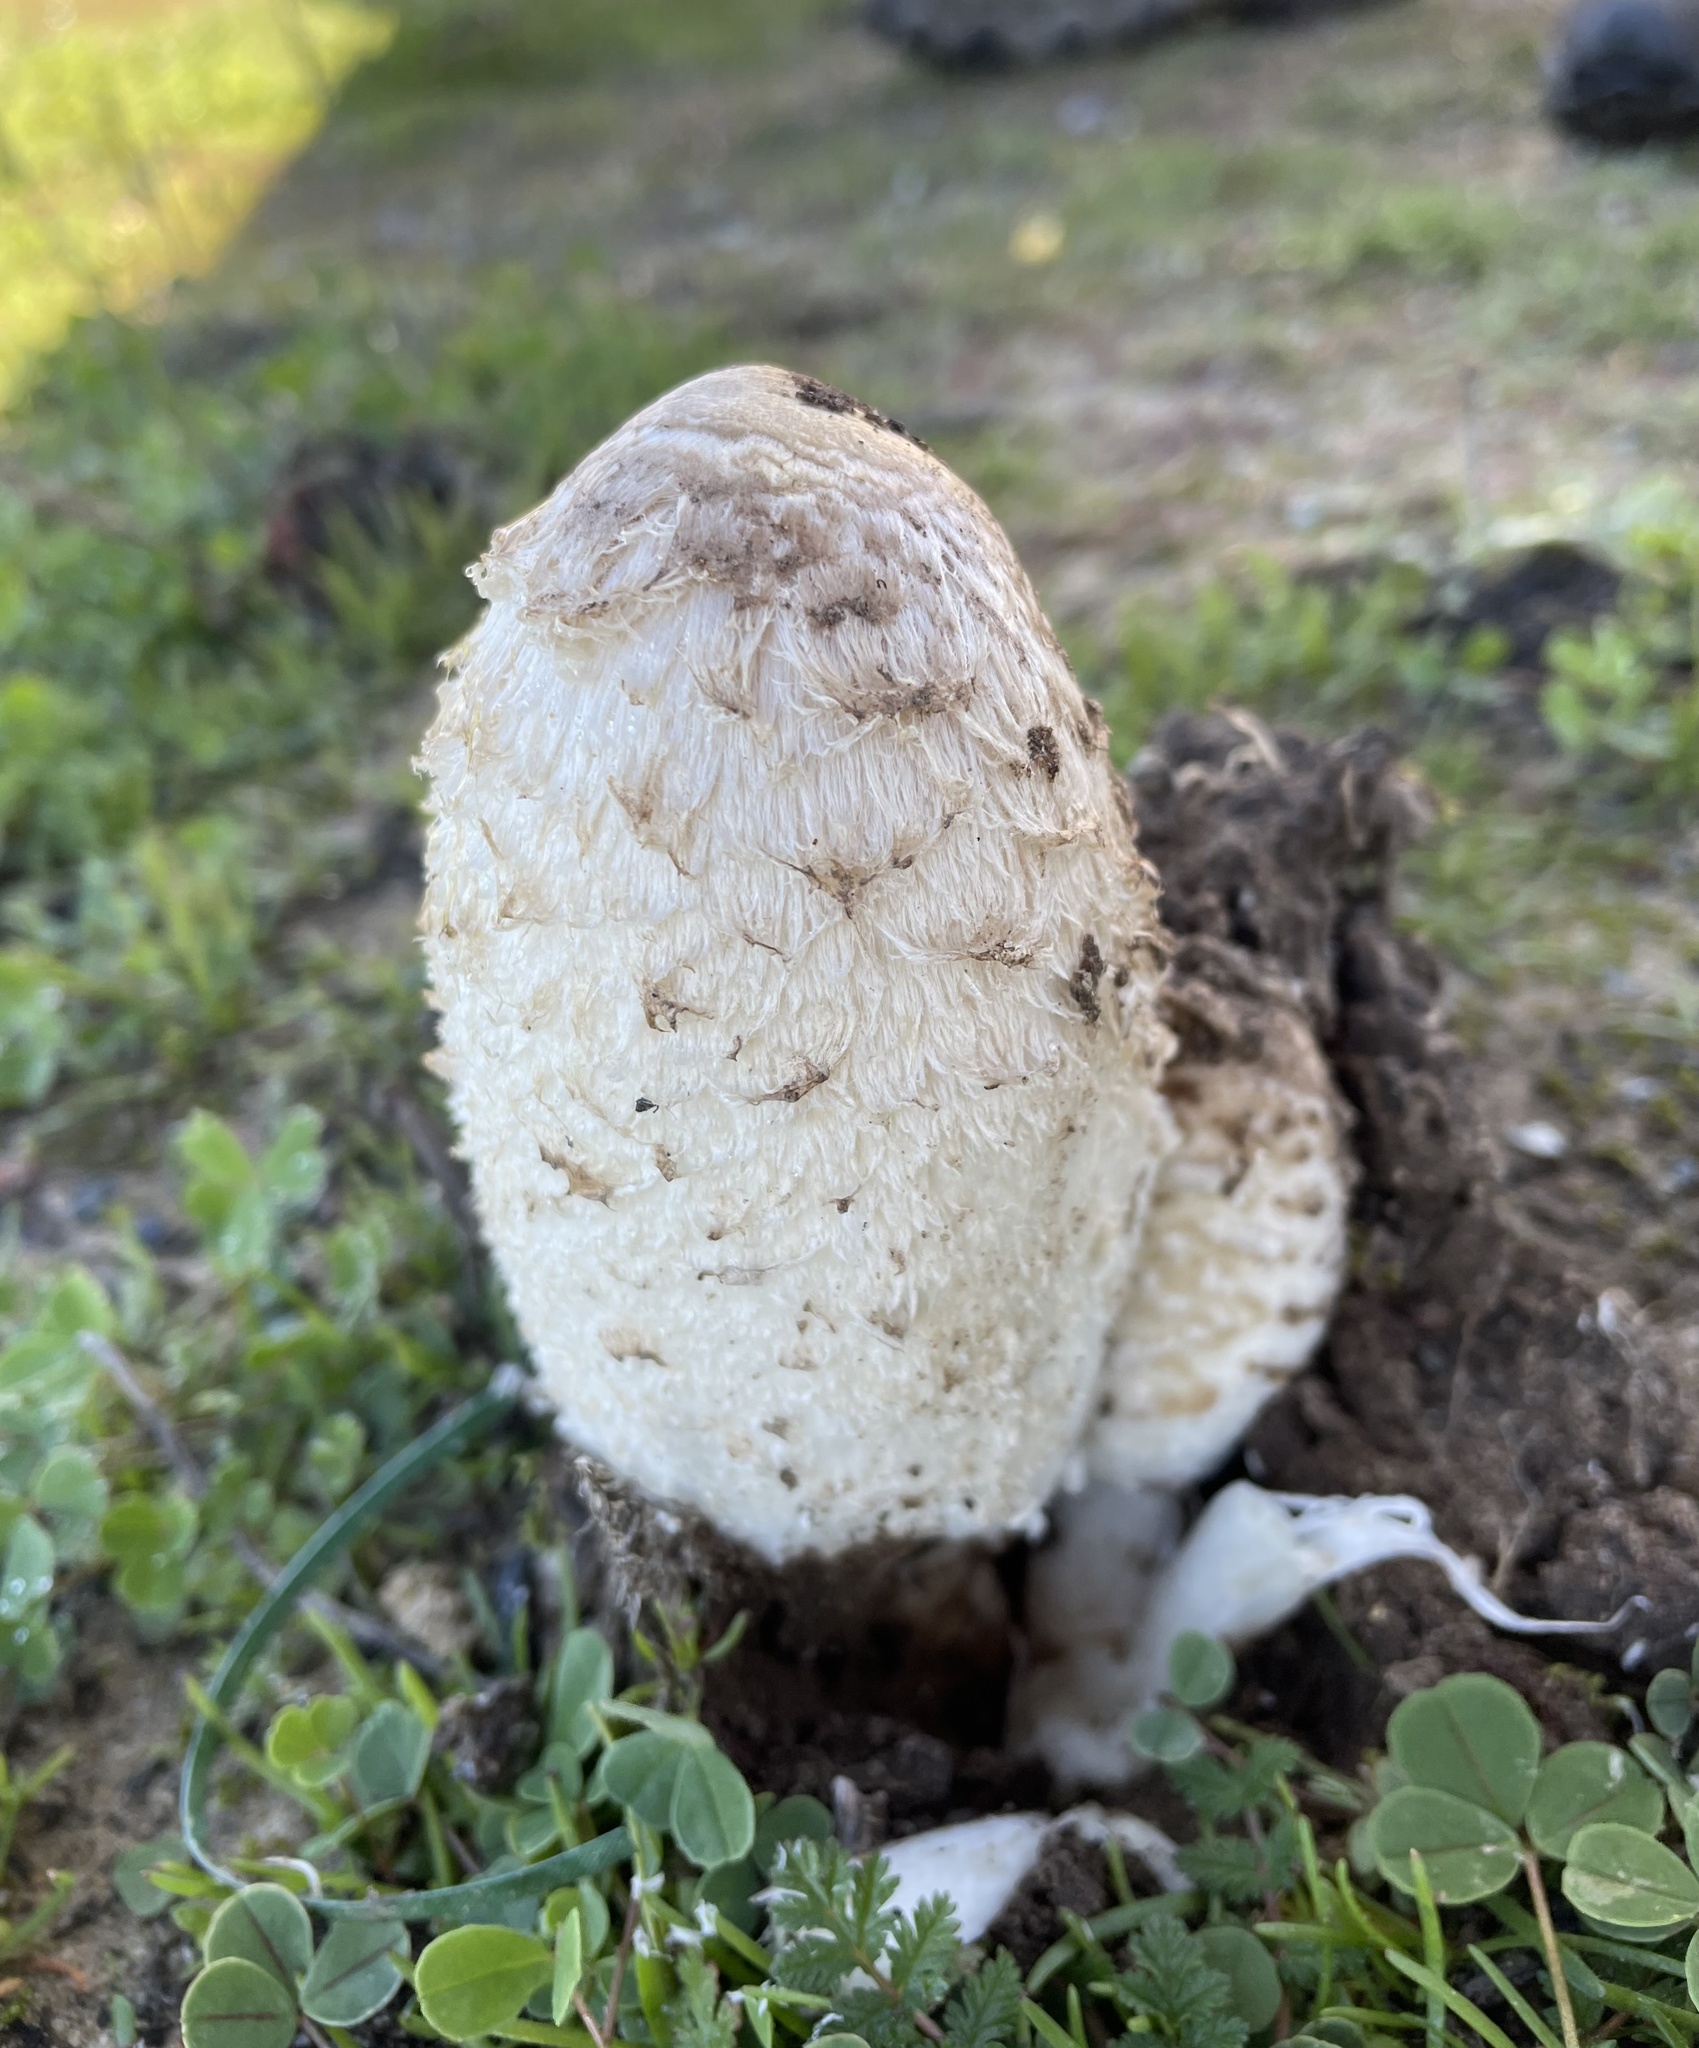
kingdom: Fungi
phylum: Basidiomycota
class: Agaricomycetes
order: Agaricales
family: Agaricaceae
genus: Coprinus
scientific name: Coprinus comatus
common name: Lawyer's wig
